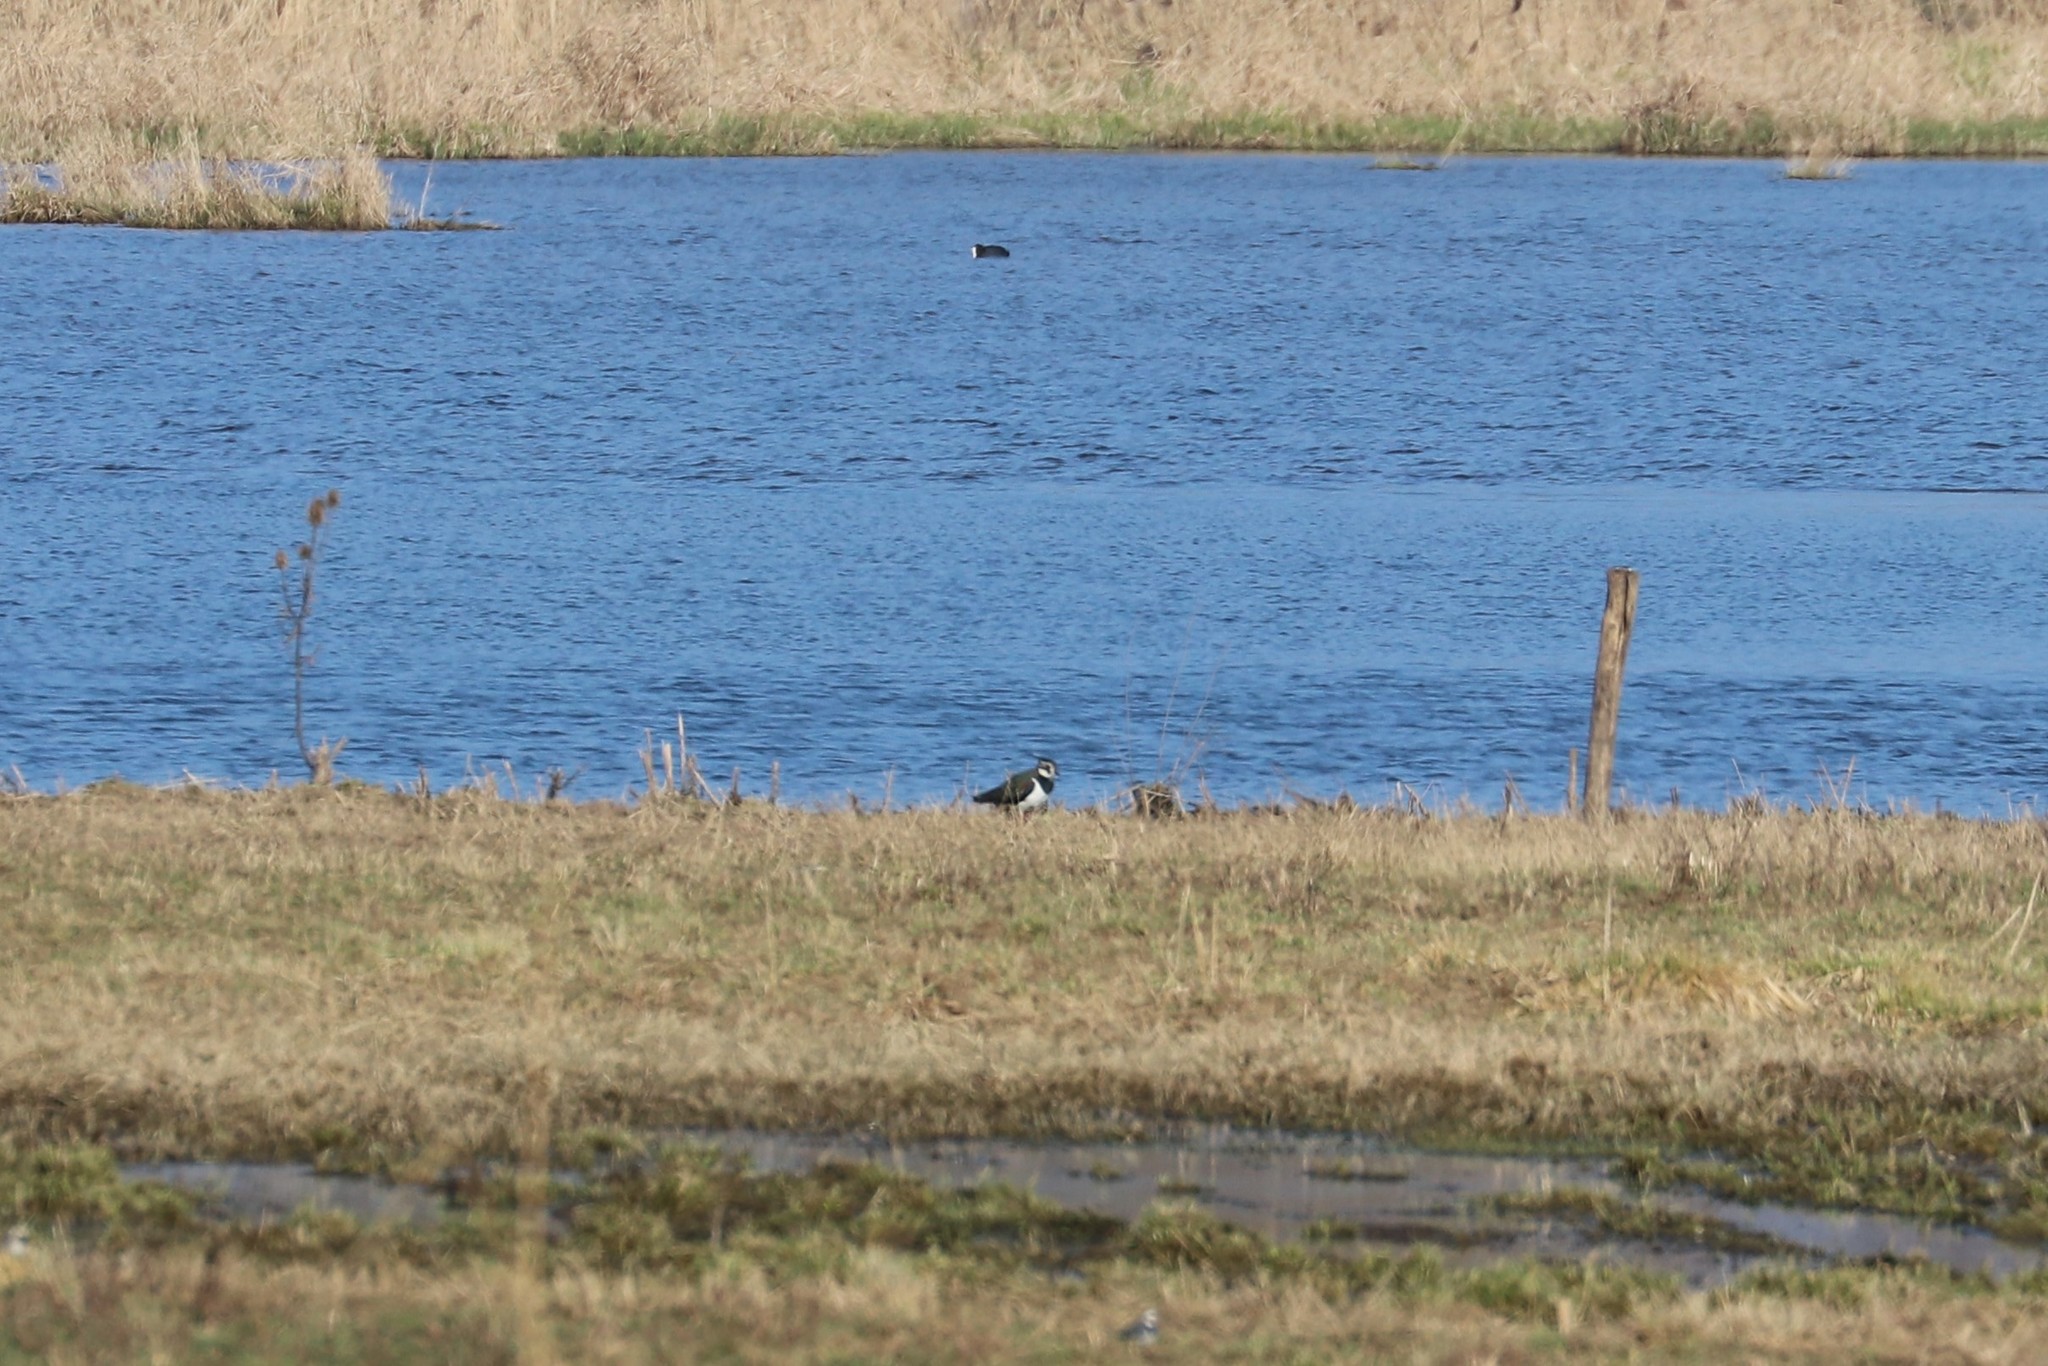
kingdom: Animalia
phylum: Chordata
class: Aves
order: Charadriiformes
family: Charadriidae
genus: Vanellus
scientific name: Vanellus vanellus
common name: Northern lapwing
